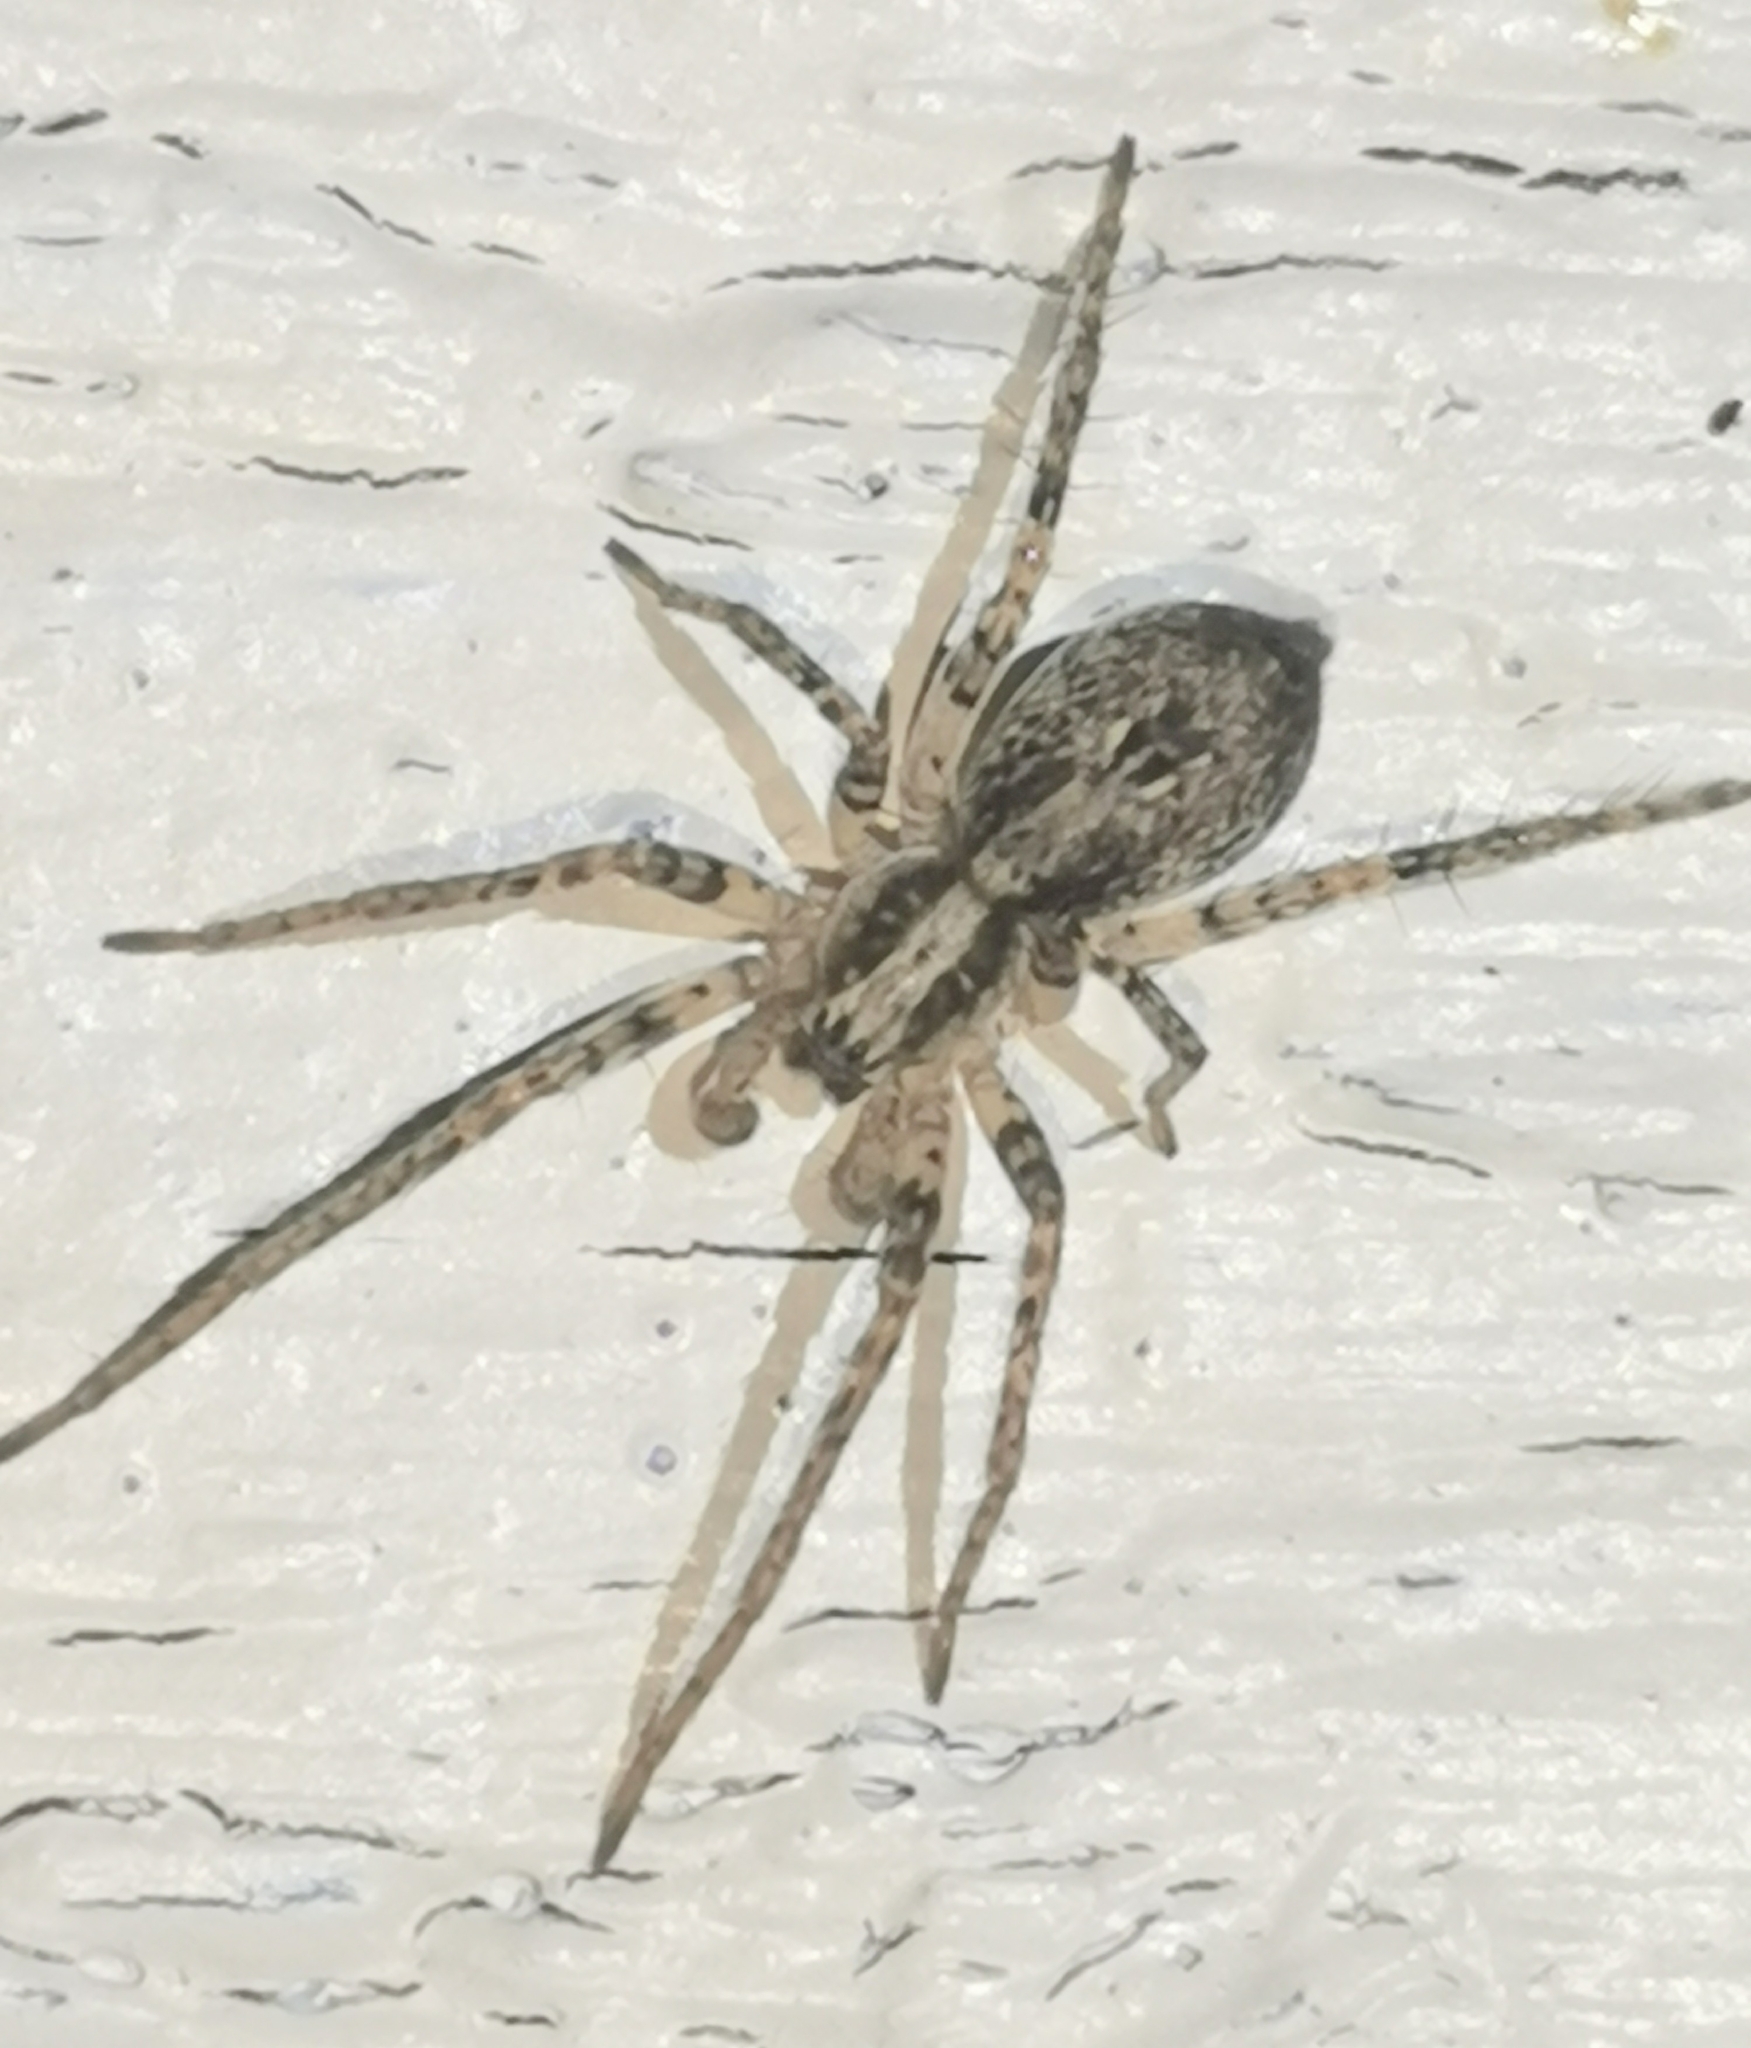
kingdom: Animalia
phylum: Arthropoda
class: Arachnida
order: Araneae
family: Anyphaenidae
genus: Anyphaena
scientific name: Anyphaena accentuata
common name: Buzzing spider
